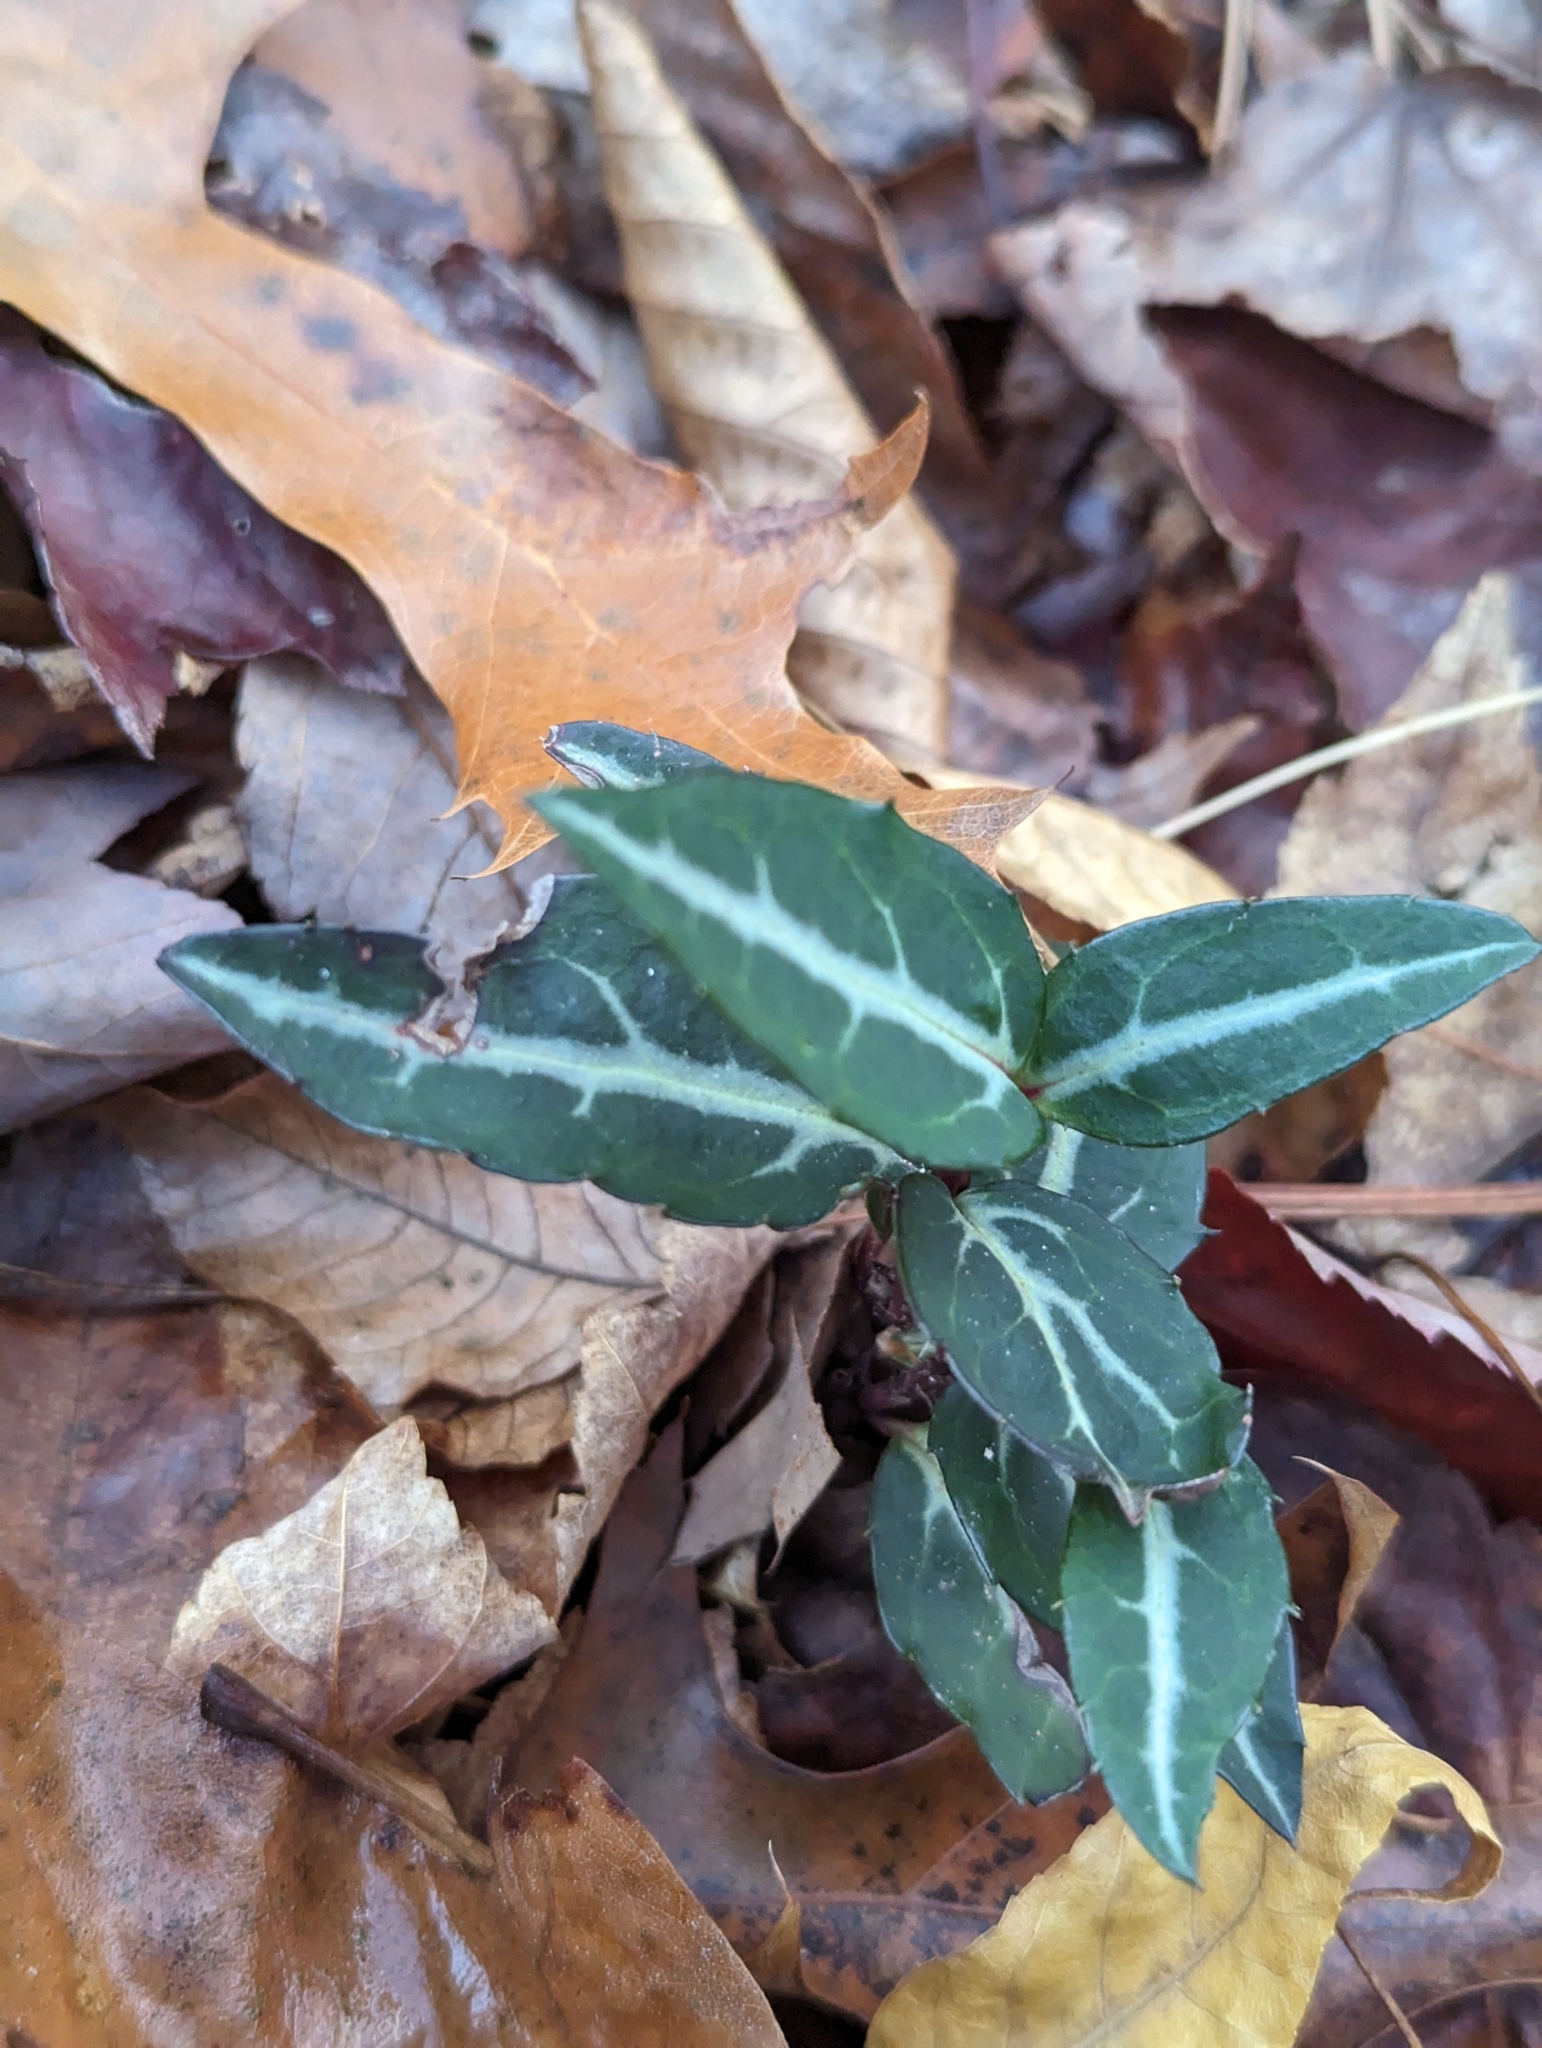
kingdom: Plantae
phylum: Tracheophyta
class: Magnoliopsida
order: Ericales
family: Ericaceae
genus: Chimaphila
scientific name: Chimaphila maculata
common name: Spotted pipsissewa
